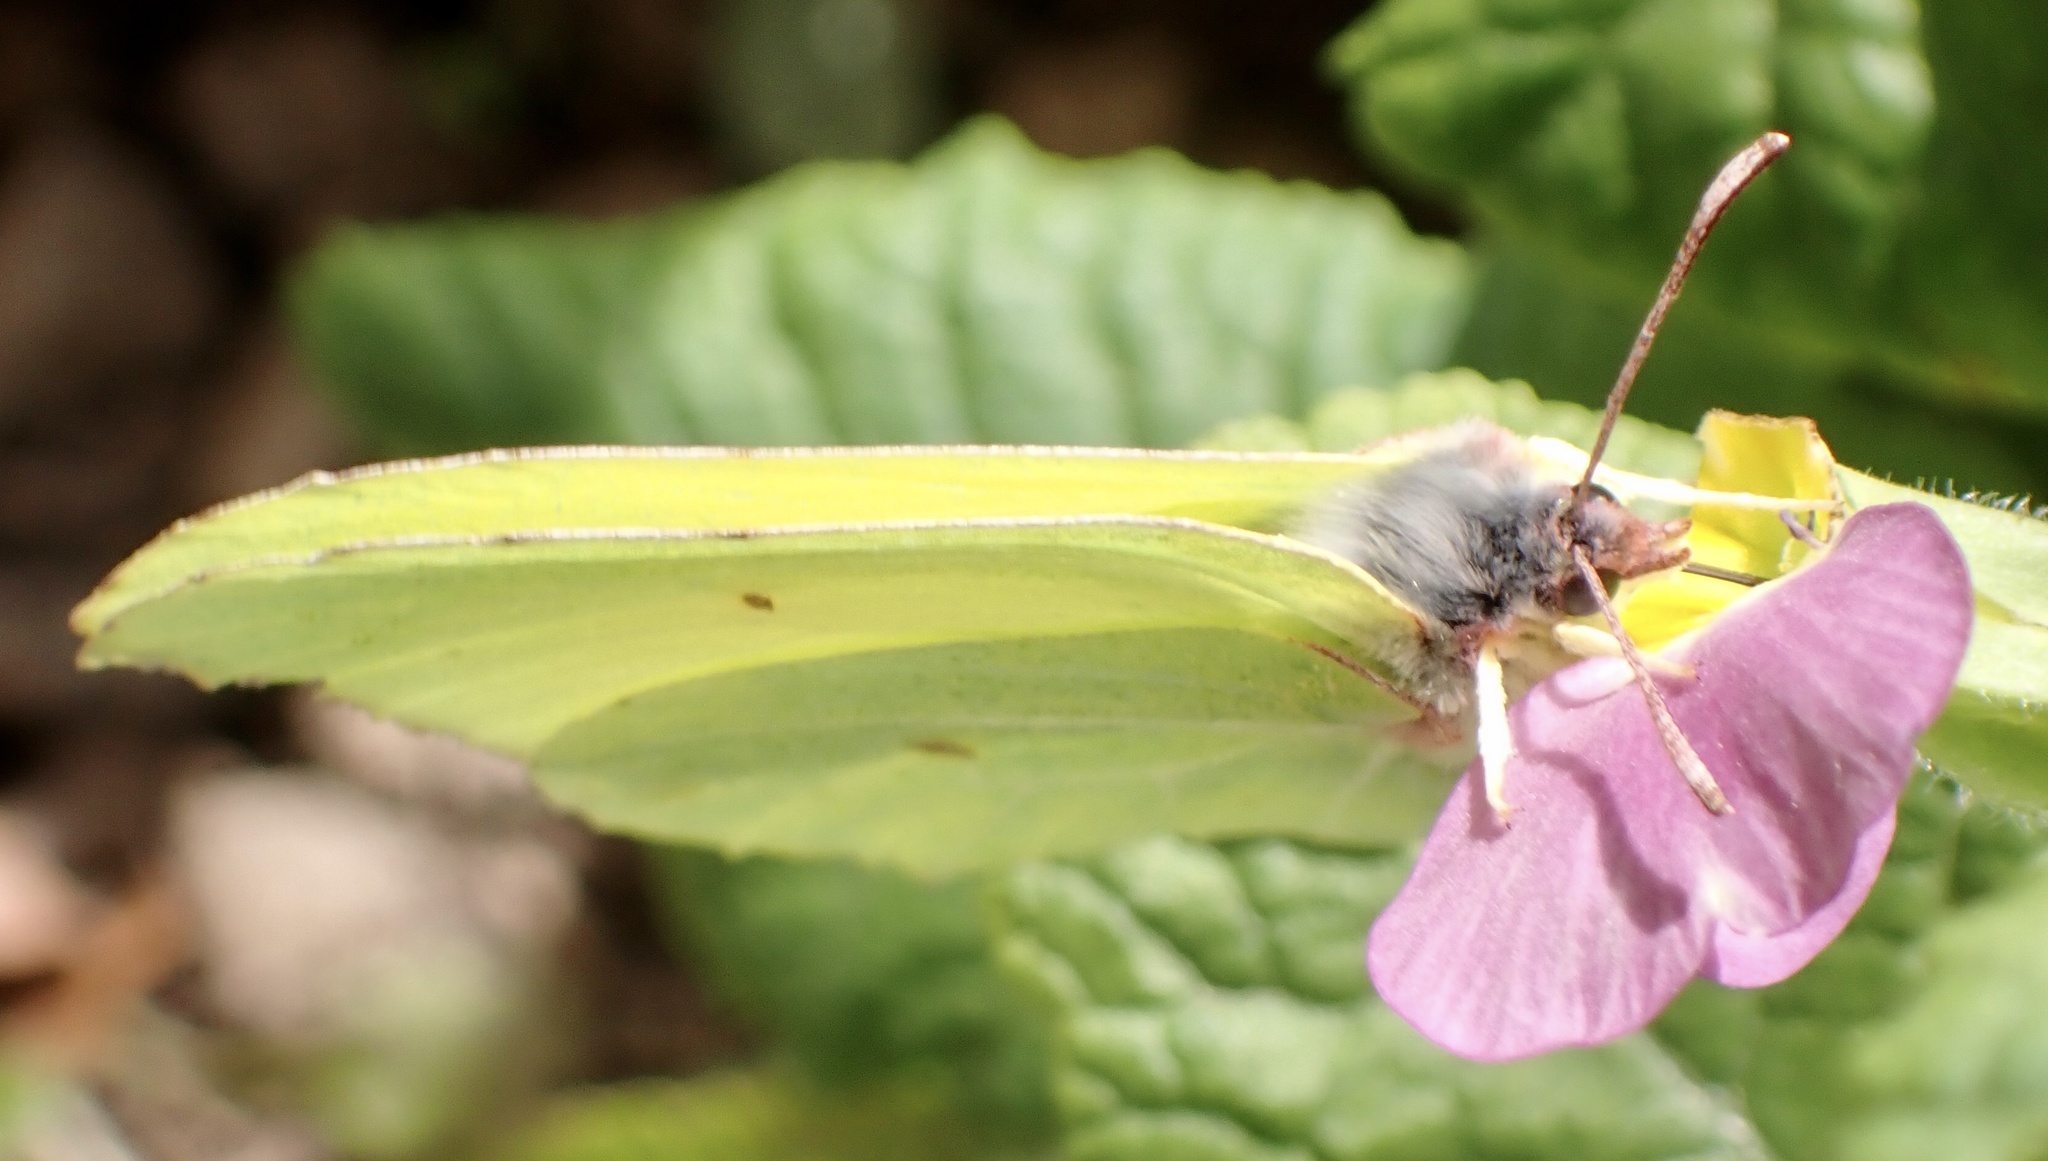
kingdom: Animalia
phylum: Arthropoda
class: Insecta
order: Lepidoptera
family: Pieridae
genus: Gonepteryx
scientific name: Gonepteryx rhamni
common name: Brimstone
